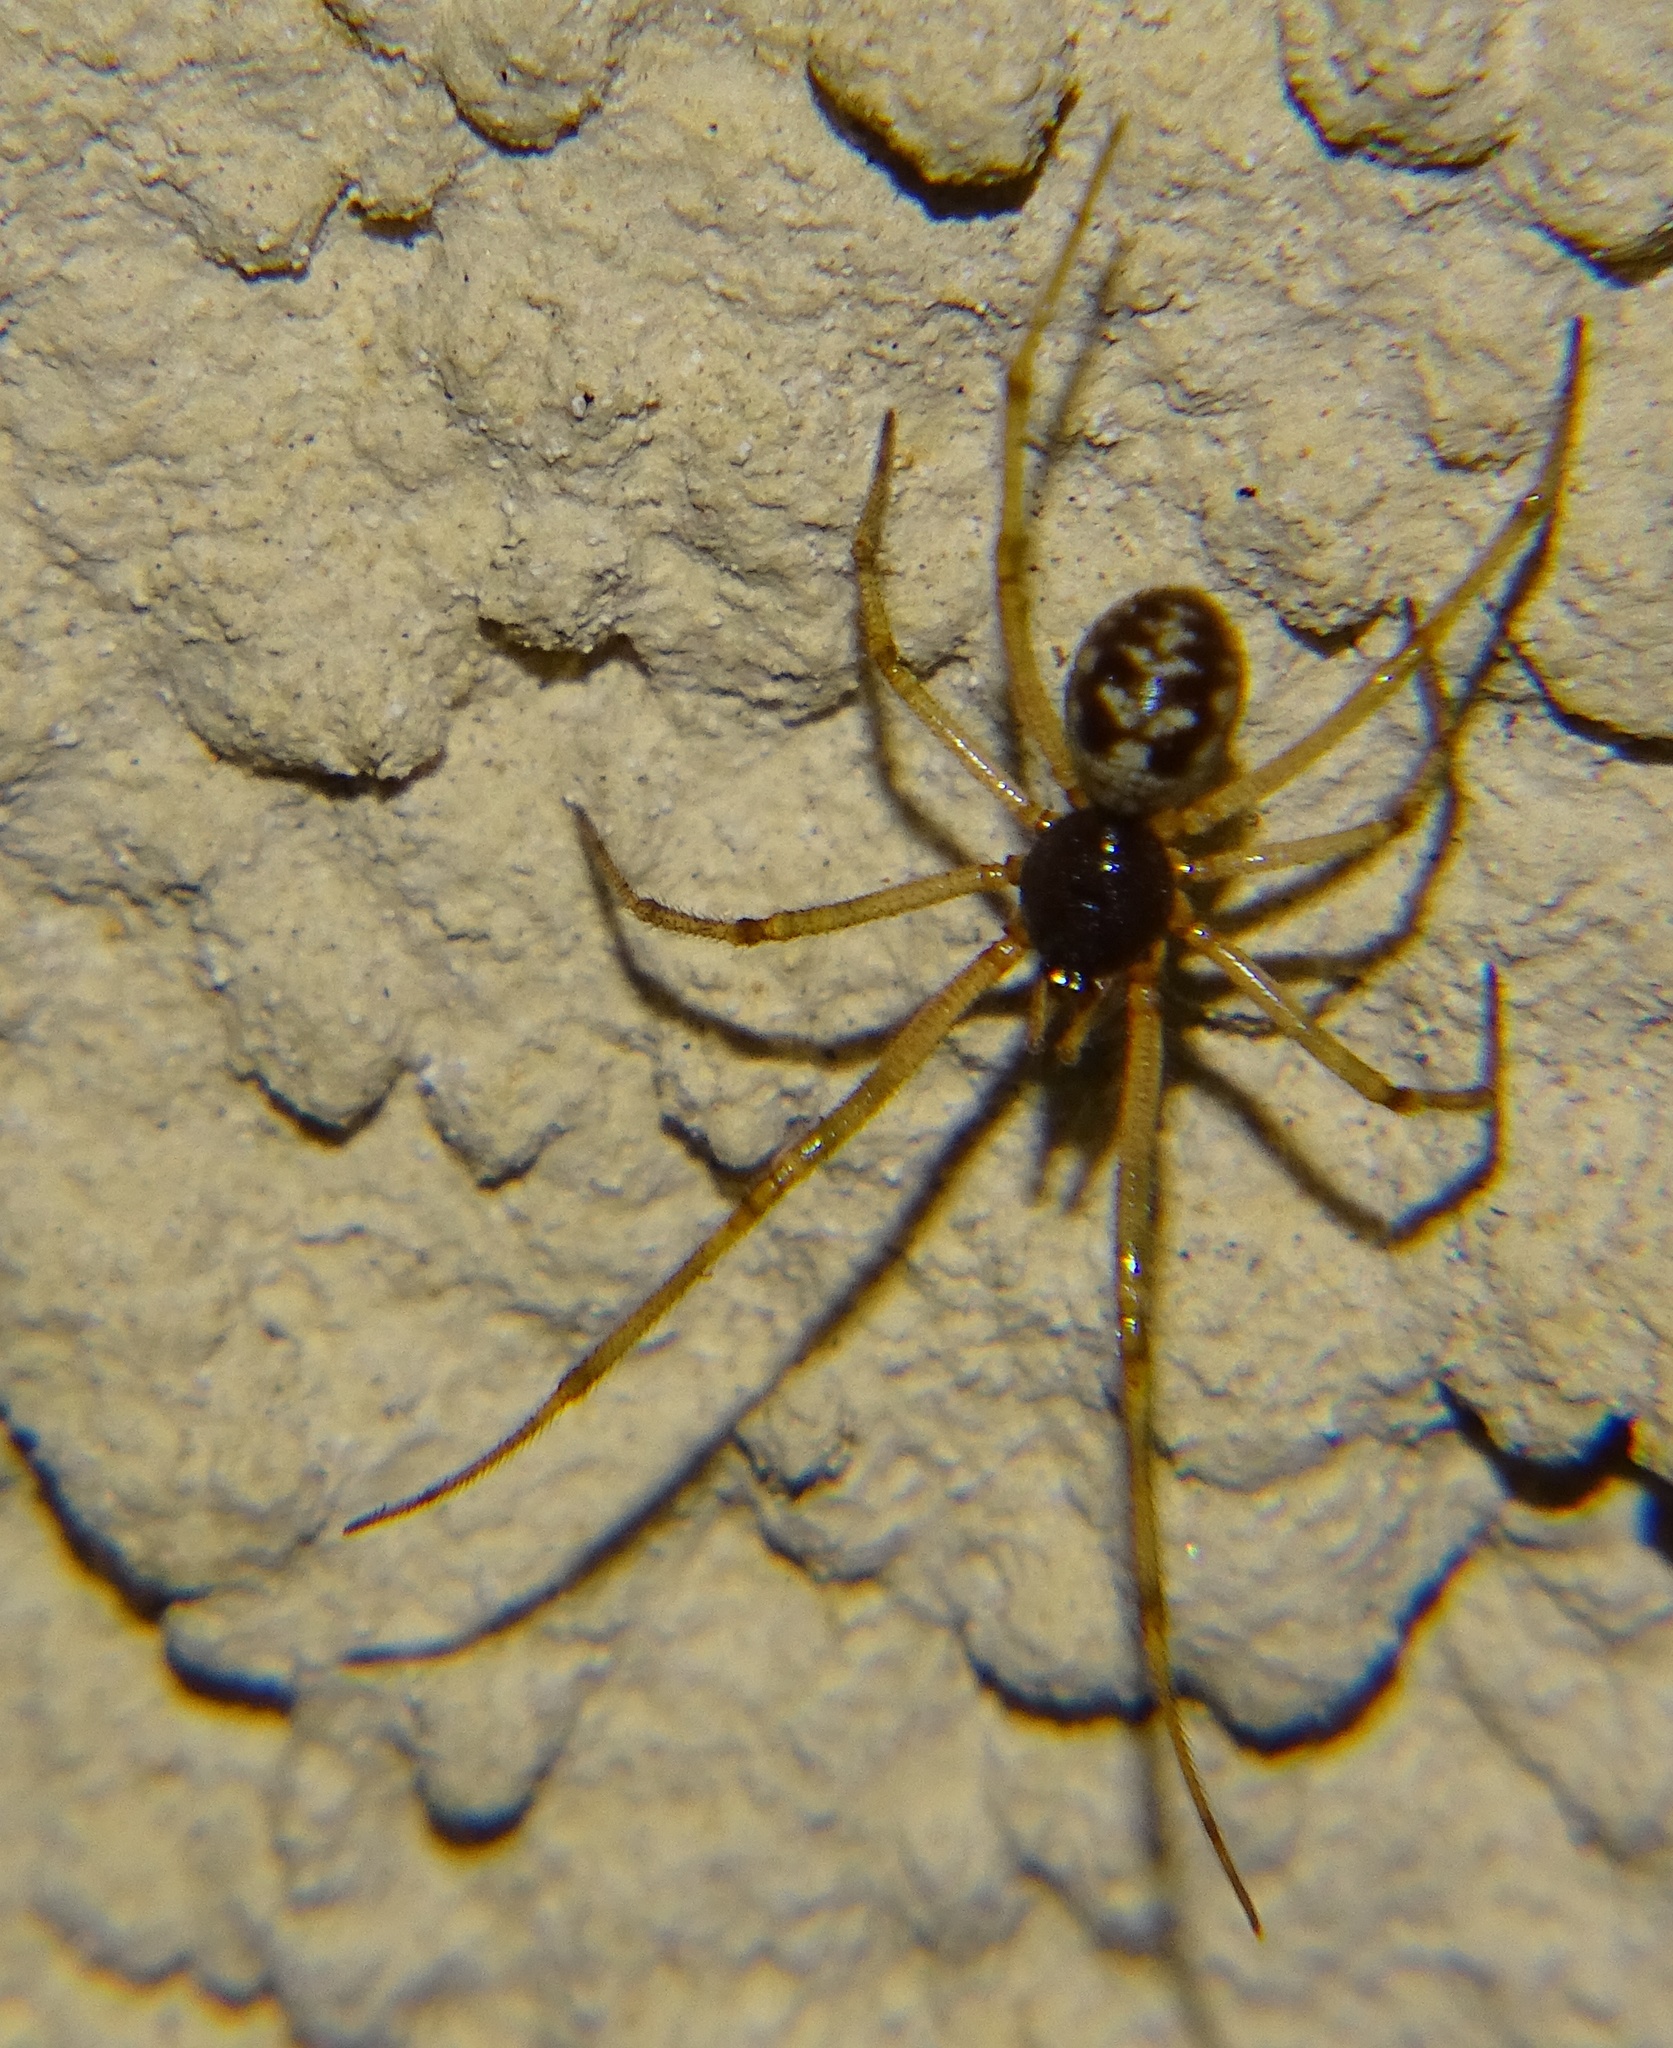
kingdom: Animalia
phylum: Arthropoda
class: Arachnida
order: Araneae
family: Theridiidae
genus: Steatoda
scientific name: Steatoda albomaculata
